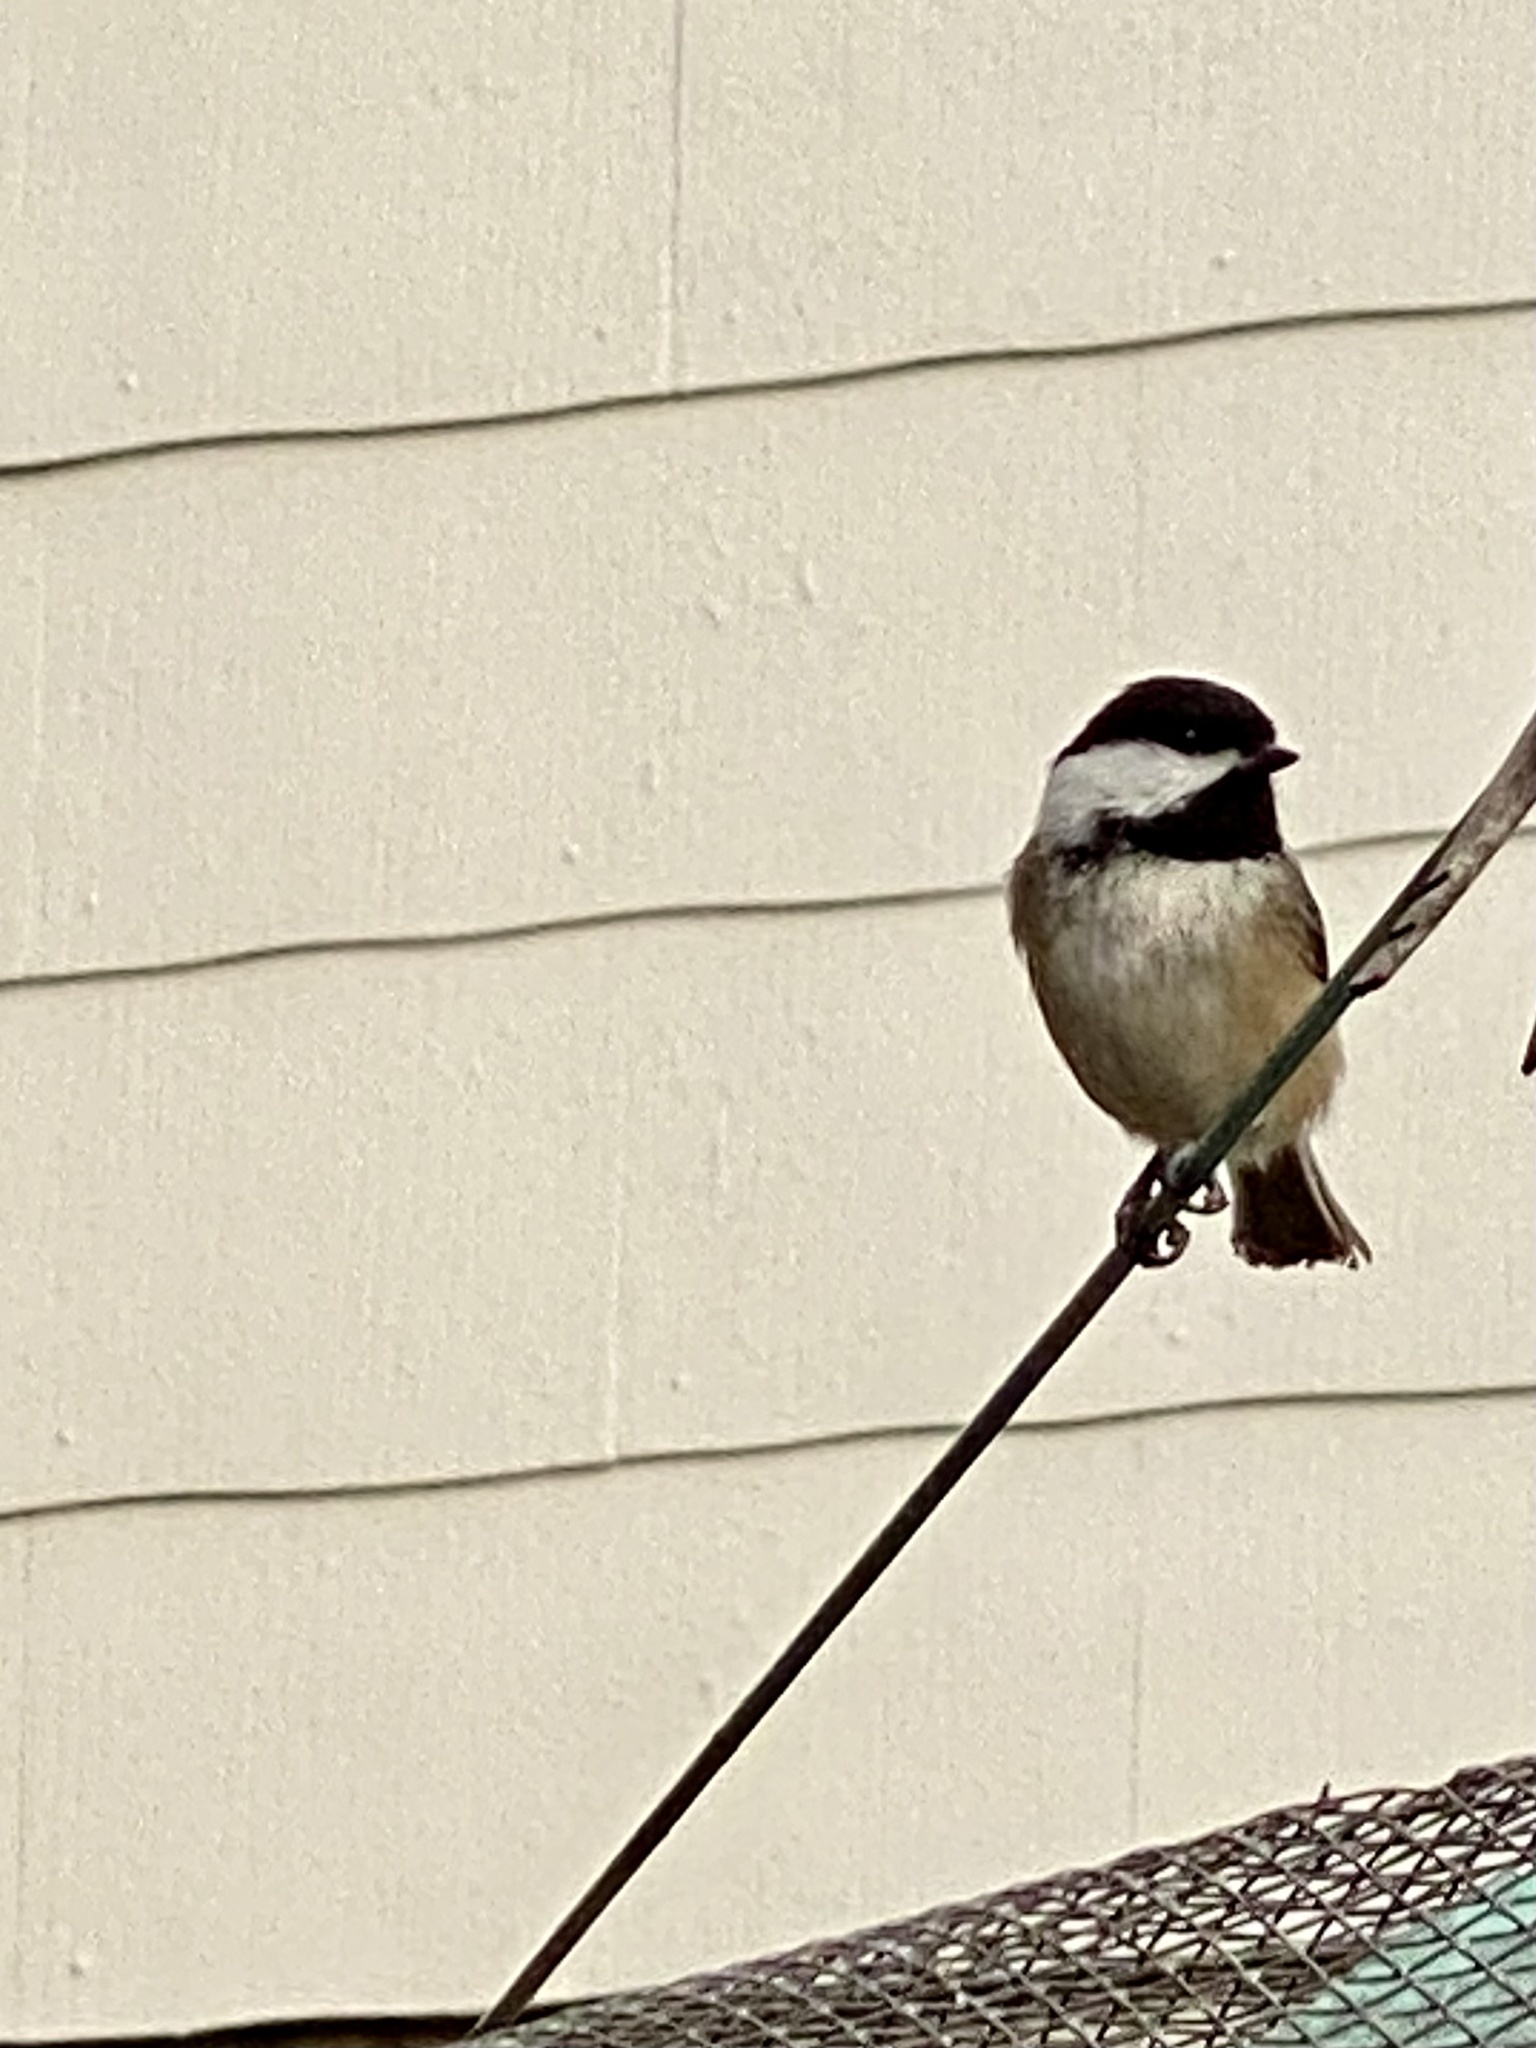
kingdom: Animalia
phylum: Chordata
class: Aves
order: Passeriformes
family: Paridae
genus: Poecile
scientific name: Poecile atricapillus
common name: Black-capped chickadee
